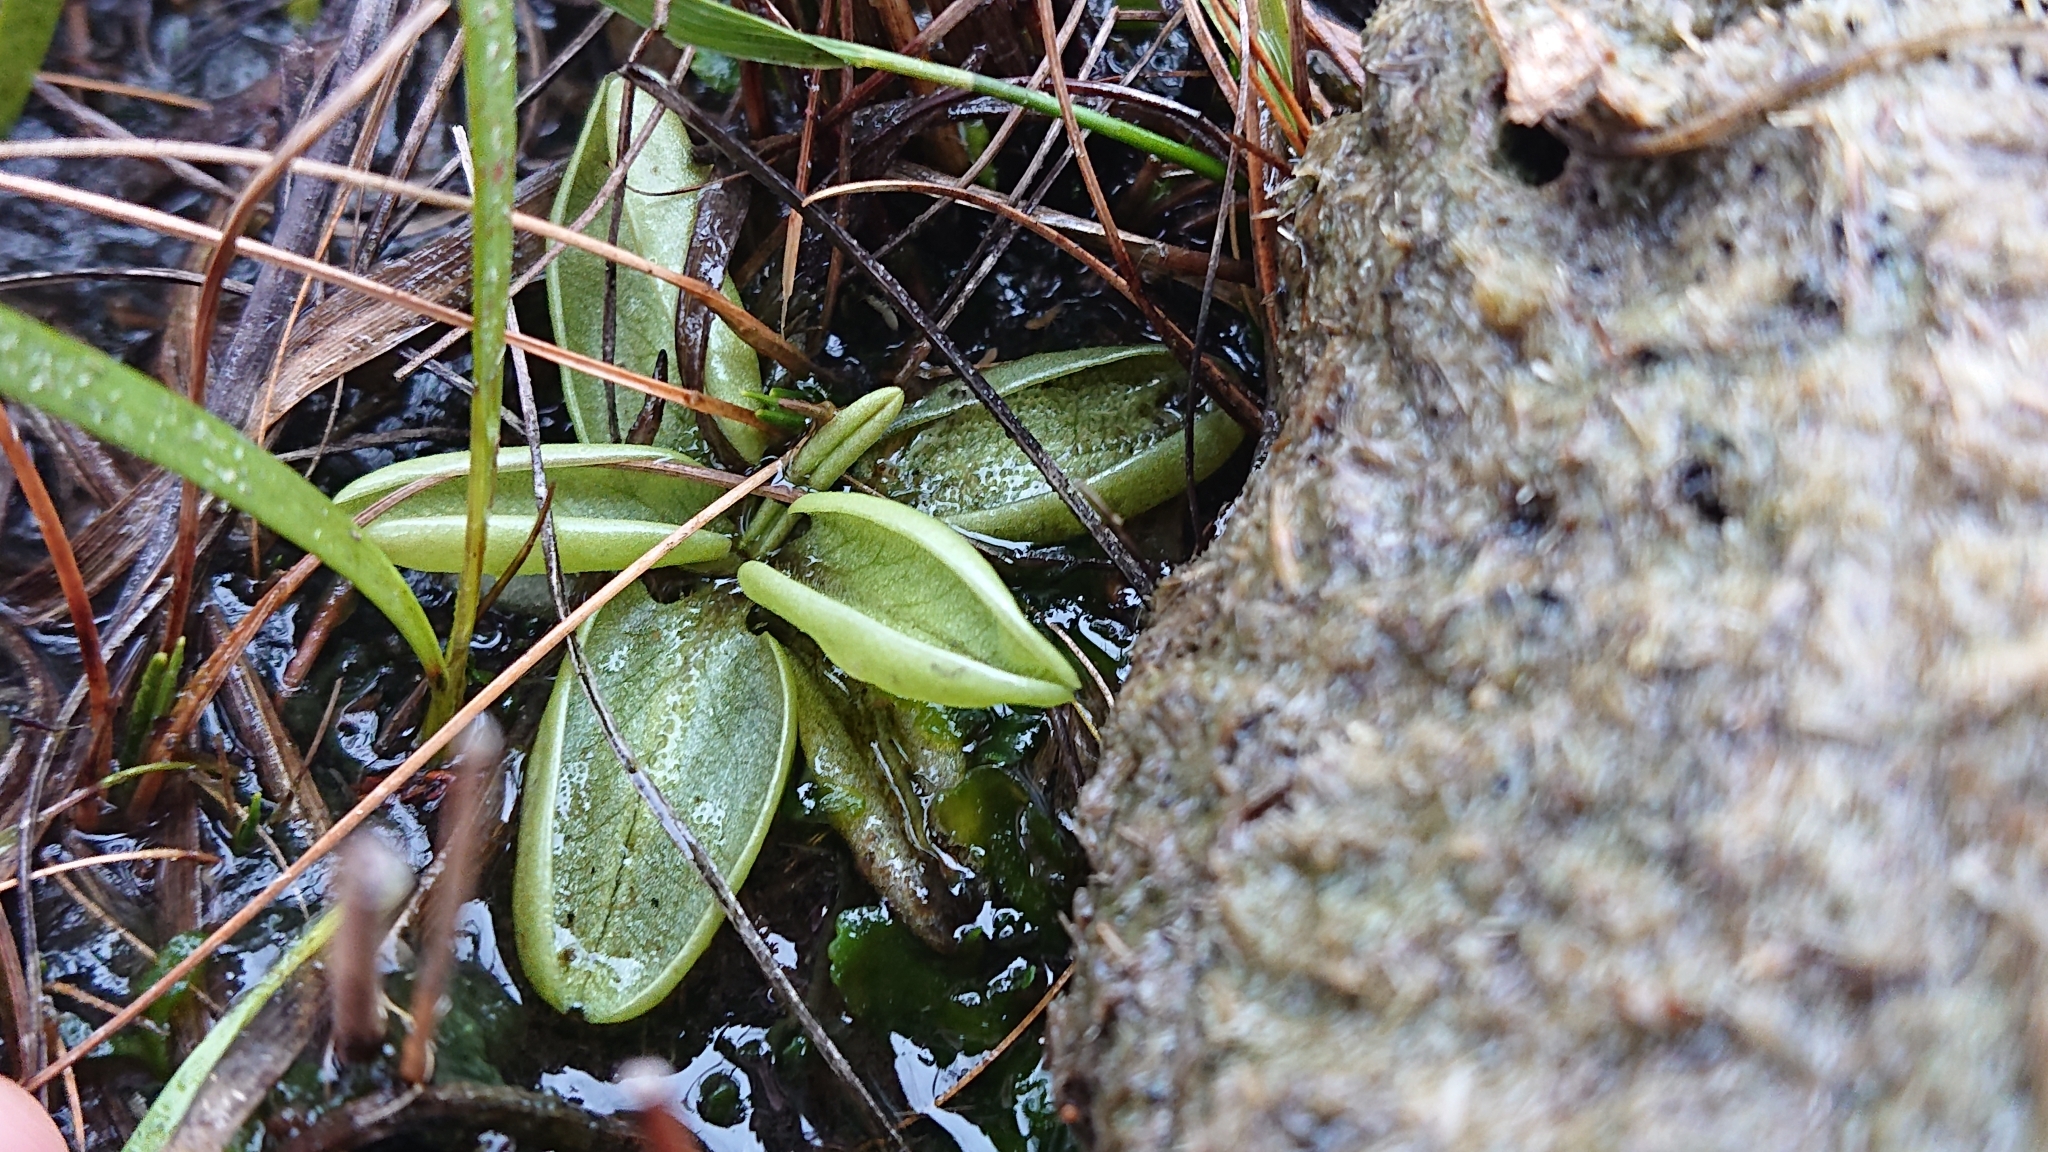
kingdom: Plantae
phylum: Tracheophyta
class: Magnoliopsida
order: Lamiales
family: Lentibulariaceae
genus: Pinguicula
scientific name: Pinguicula lusitanica
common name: Pale butterwort
